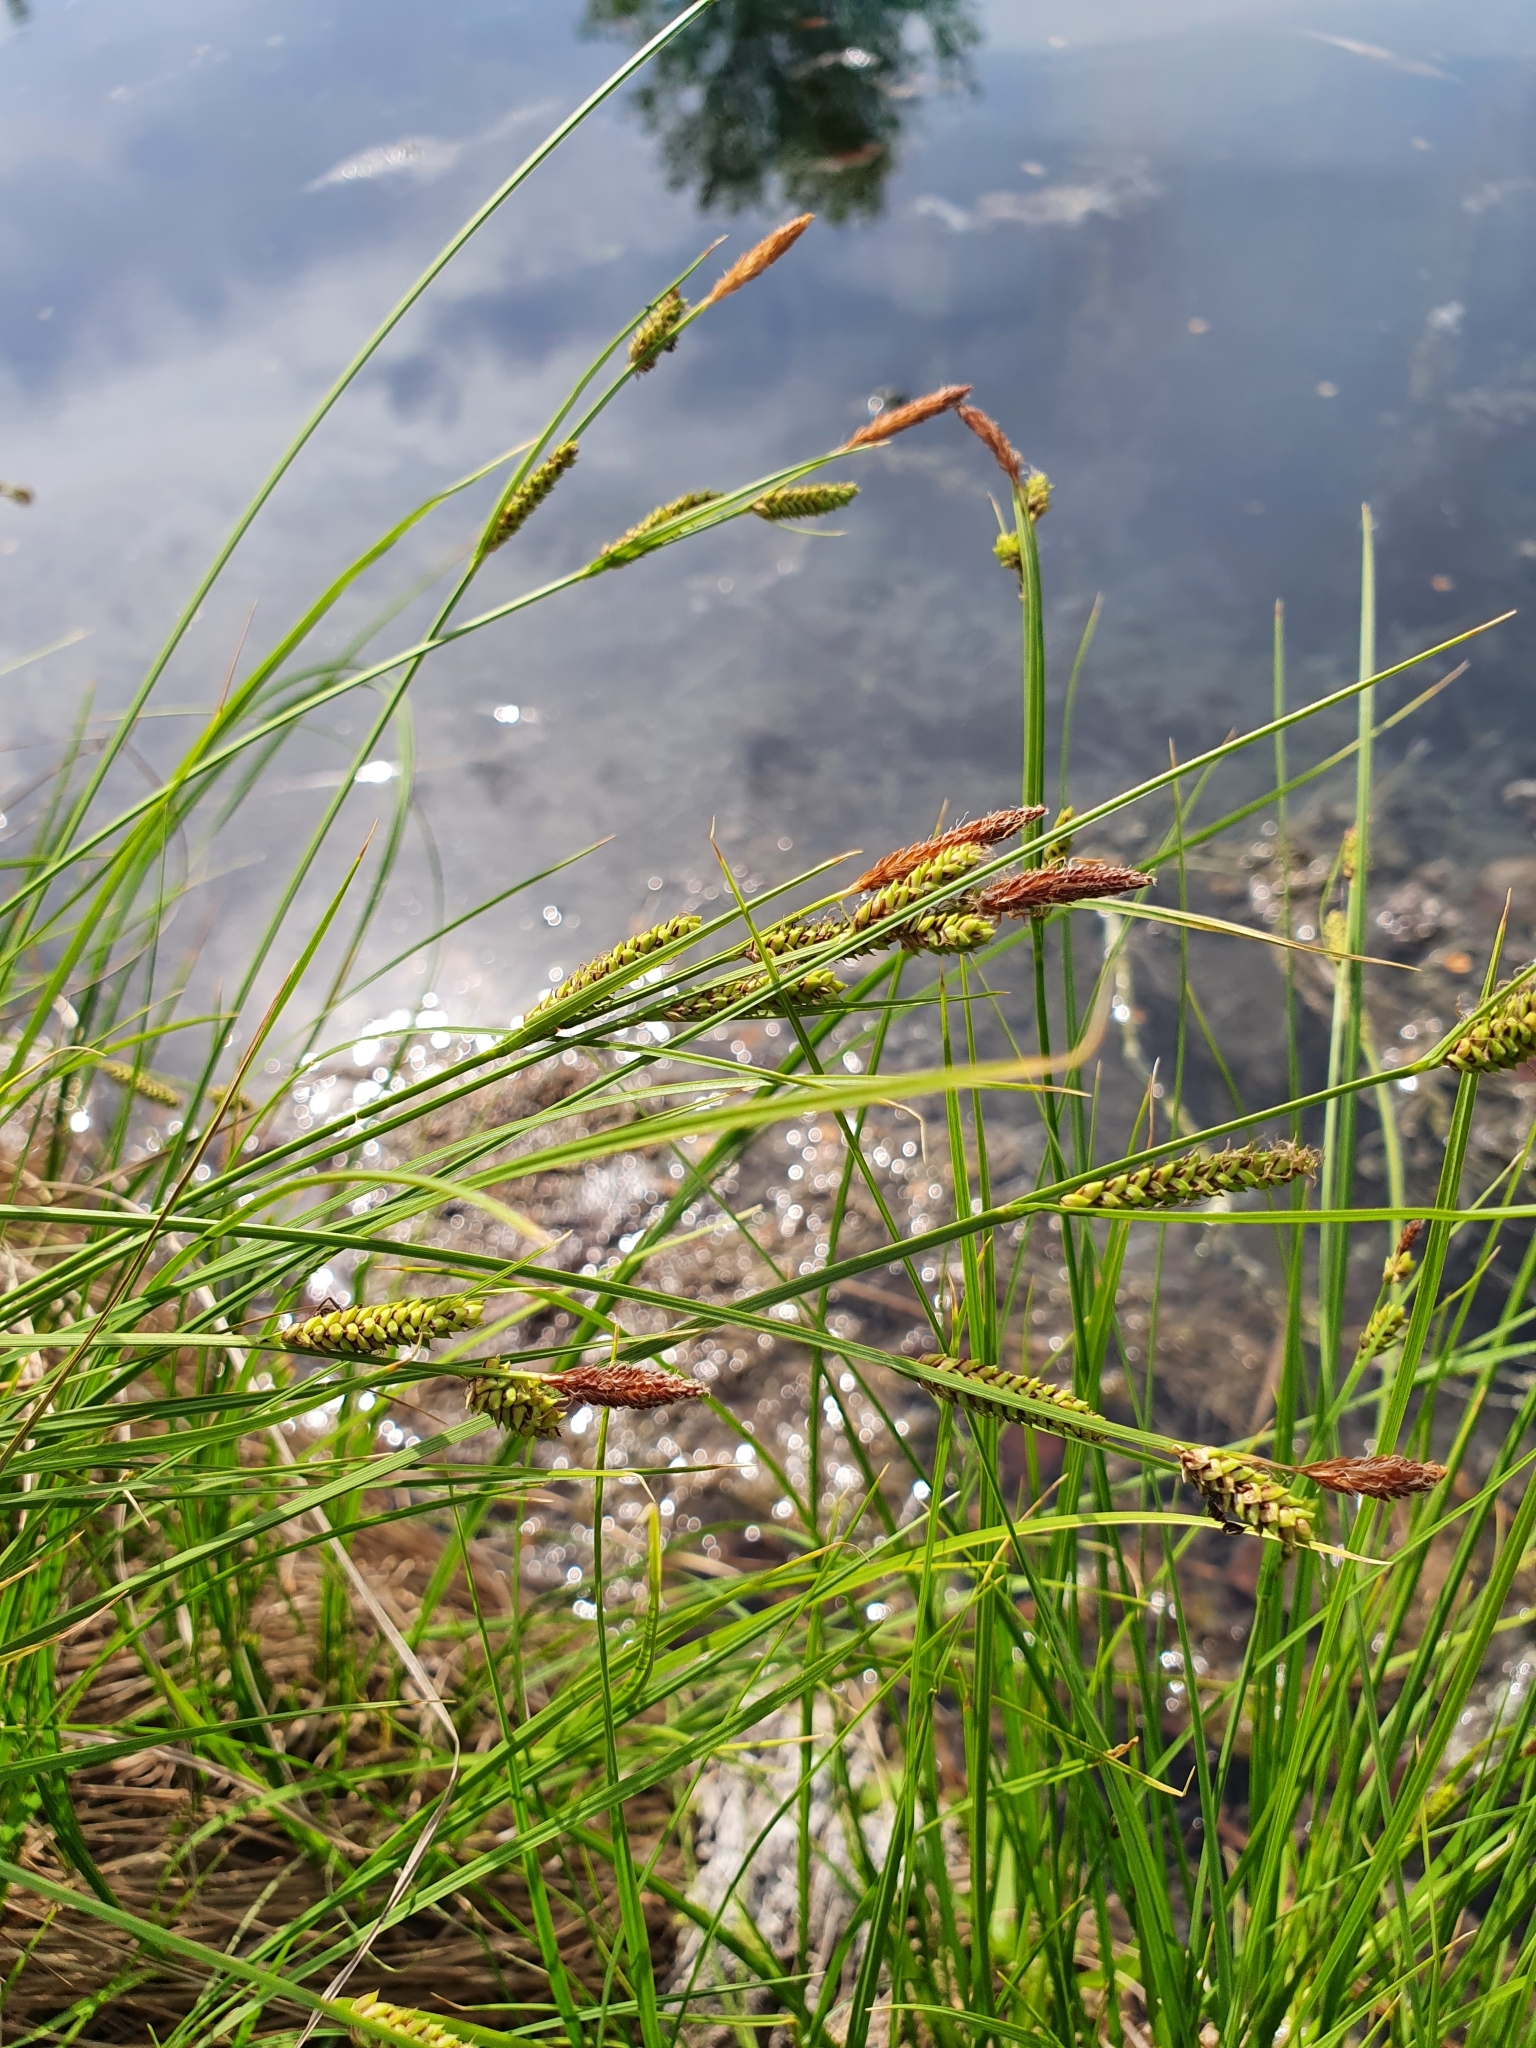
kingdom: Plantae
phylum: Tracheophyta
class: Liliopsida
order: Poales
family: Cyperaceae
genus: Carex
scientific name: Carex nigra
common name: Common sedge
